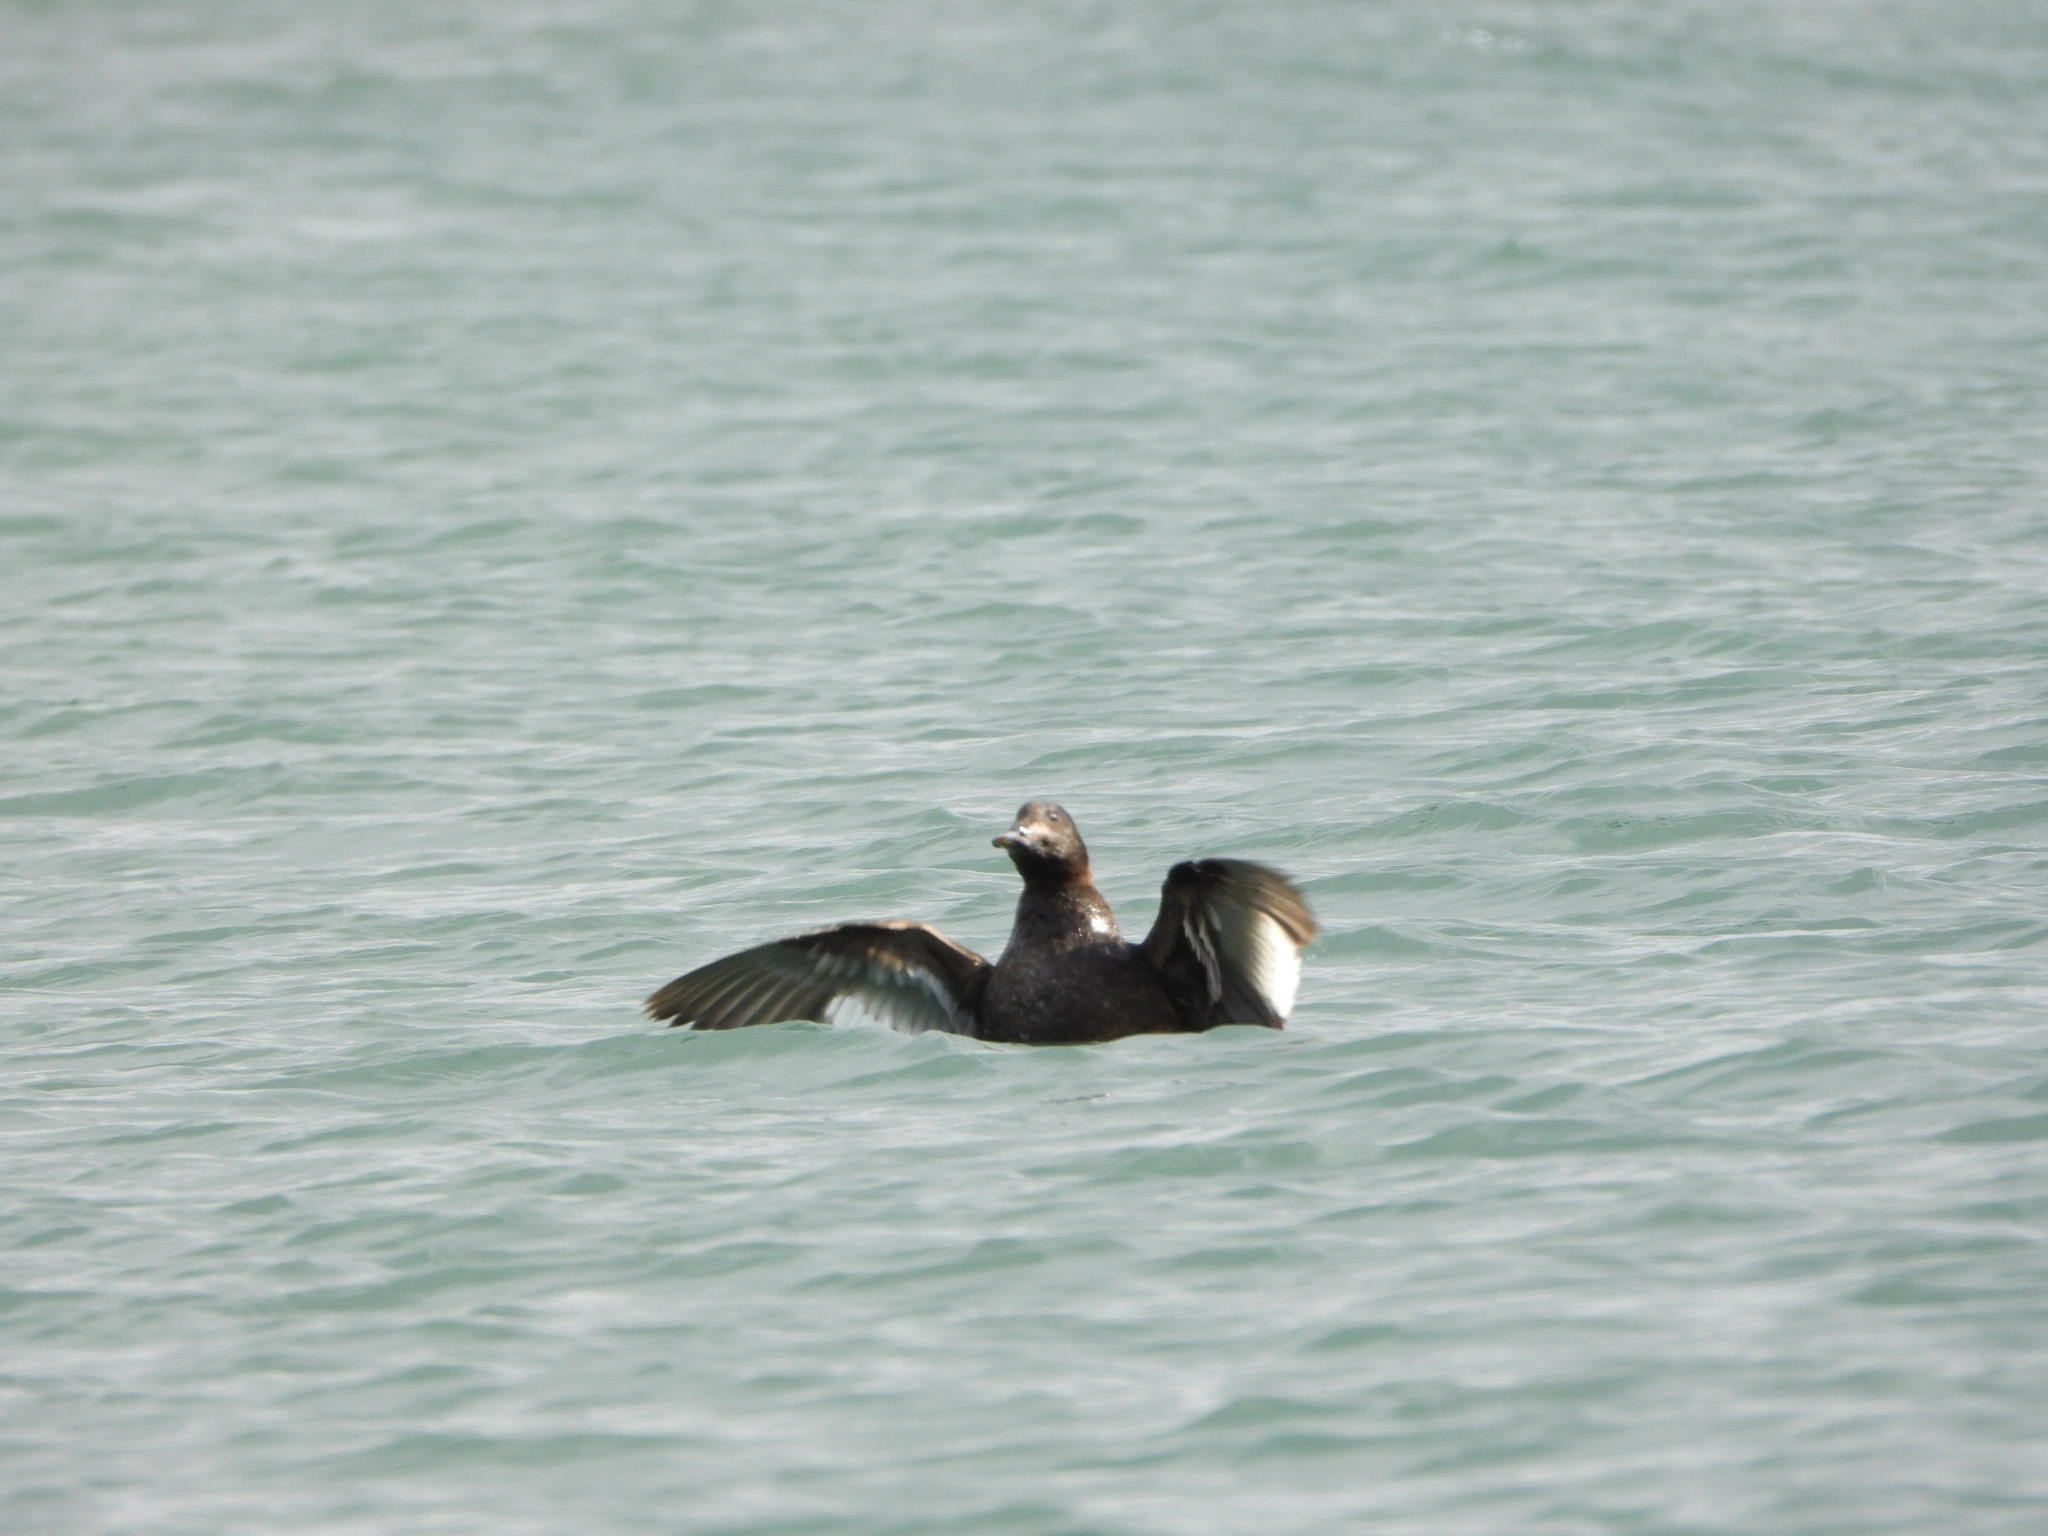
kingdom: Animalia
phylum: Chordata
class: Aves
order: Anseriformes
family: Anatidae
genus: Melanitta
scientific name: Melanitta deglandi
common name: White-winged scoter
